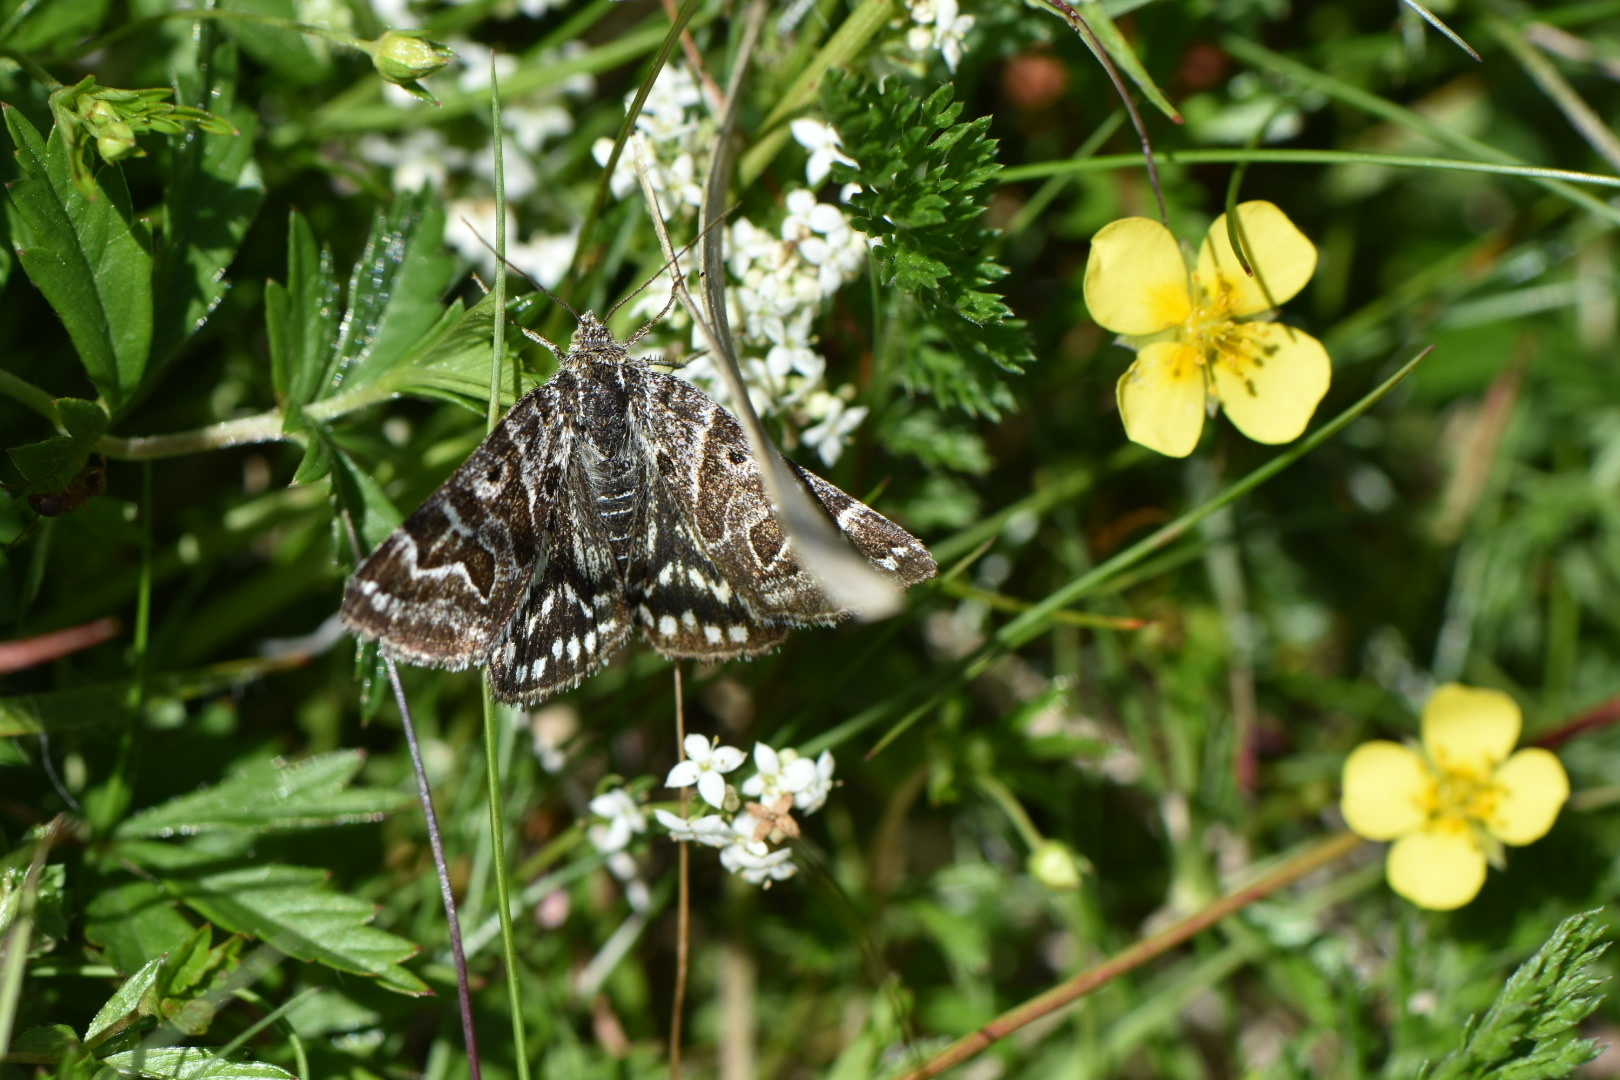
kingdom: Animalia
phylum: Arthropoda
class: Insecta
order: Lepidoptera
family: Erebidae
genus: Callistege
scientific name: Callistege mi
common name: Mother shipton
